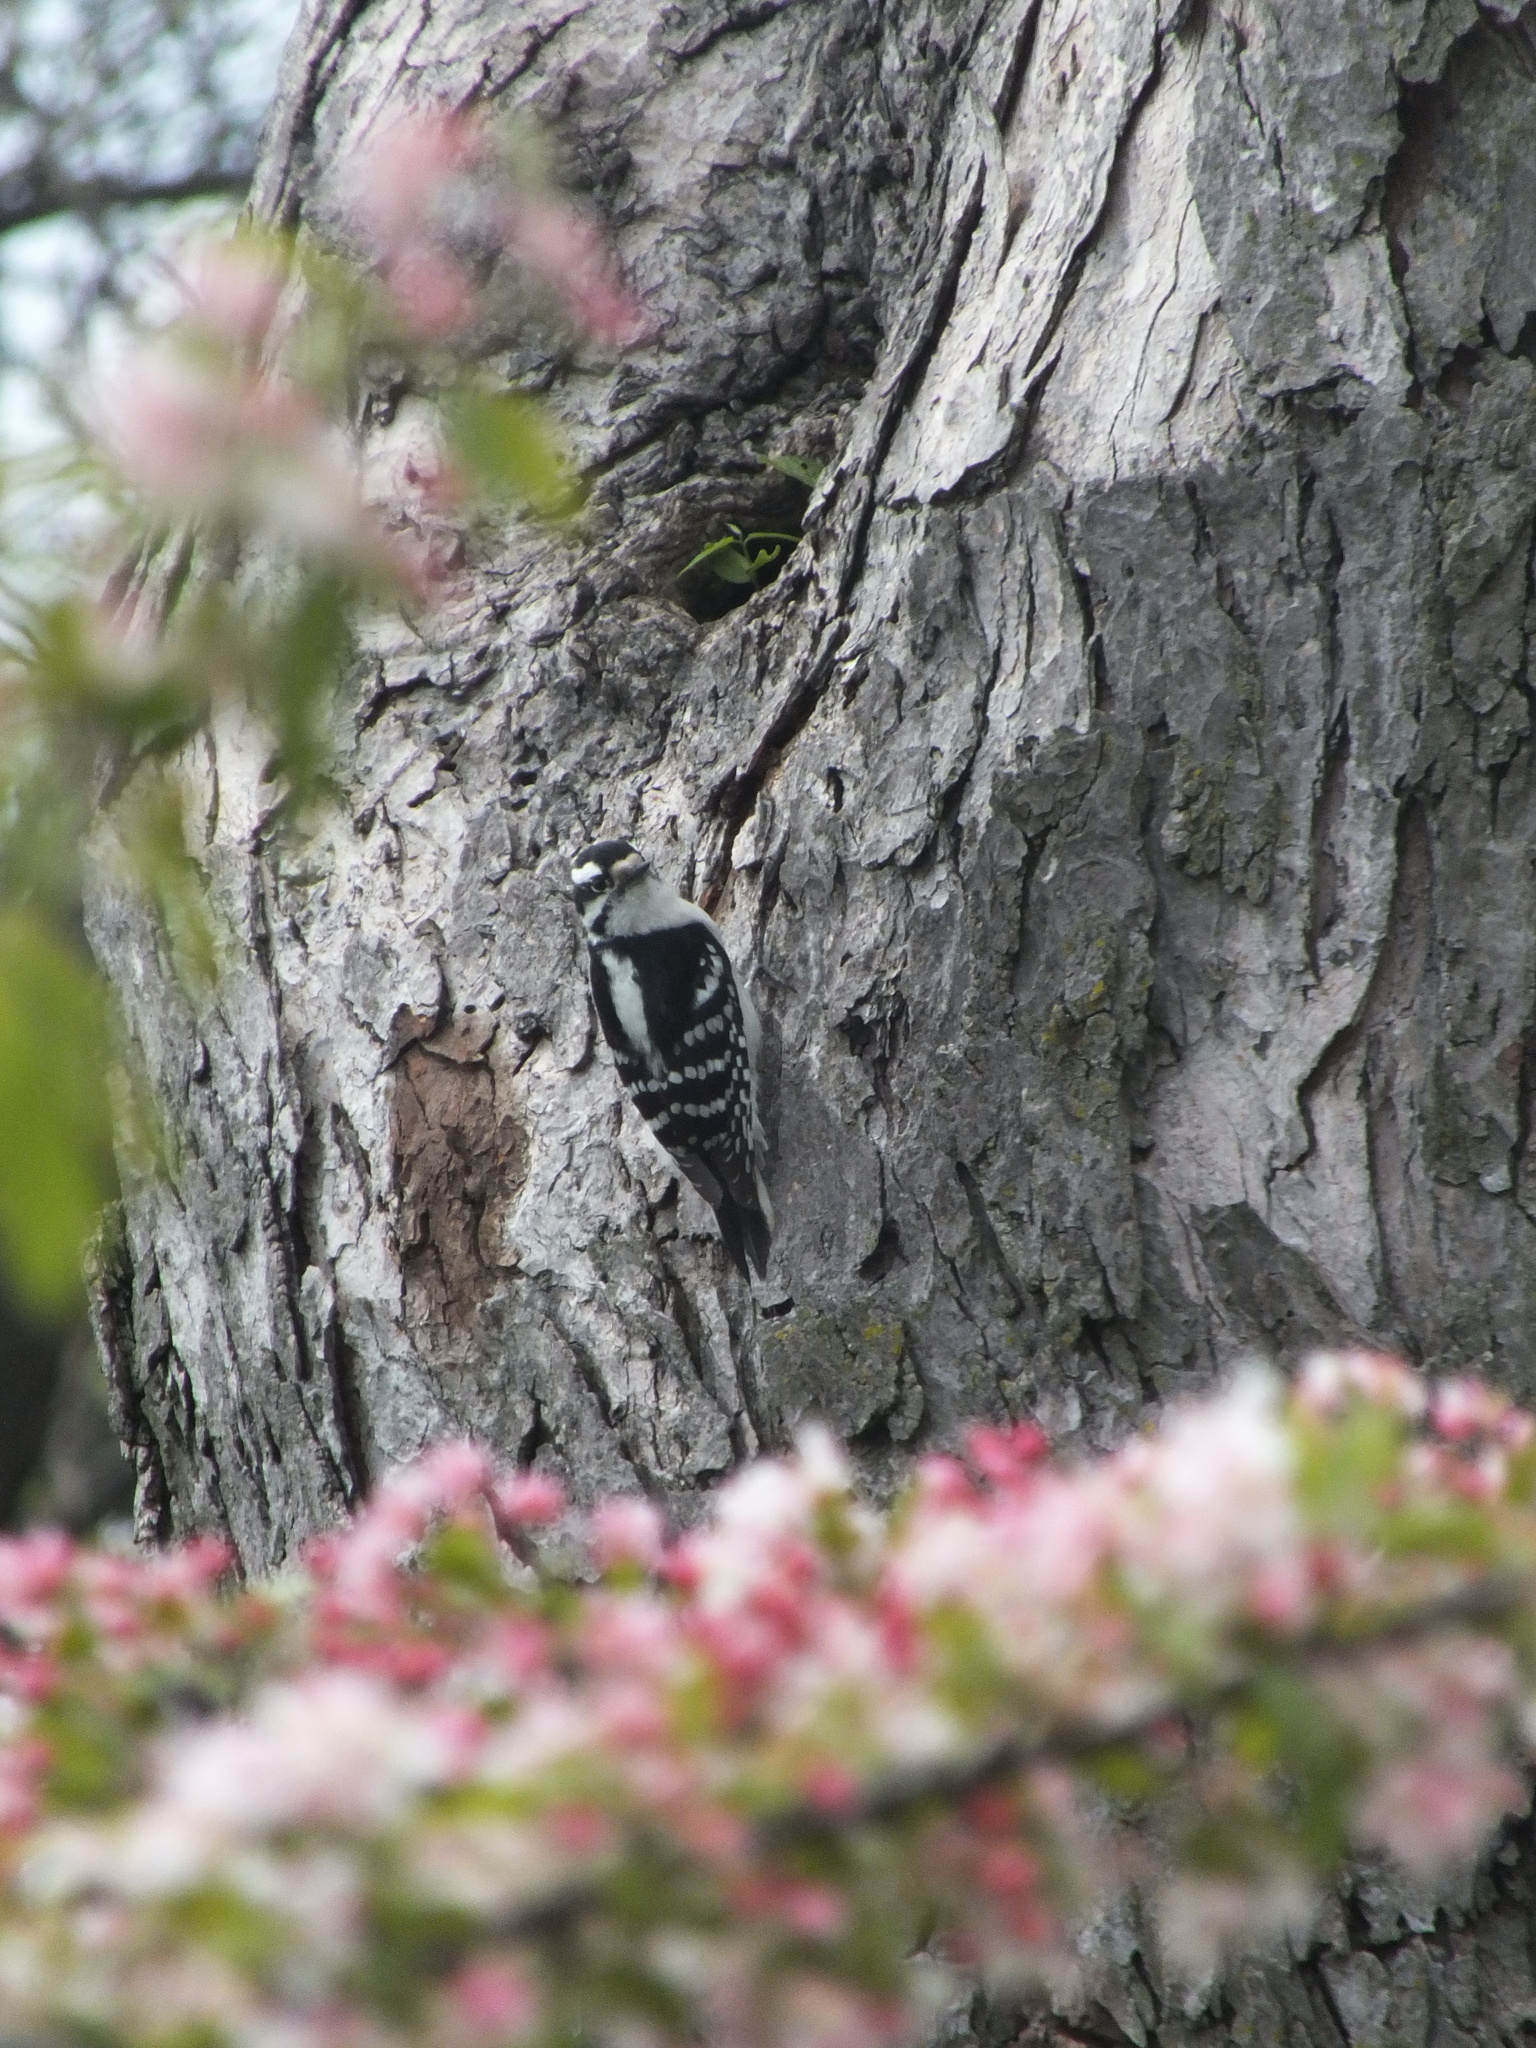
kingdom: Animalia
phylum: Chordata
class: Aves
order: Piciformes
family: Picidae
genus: Dryobates
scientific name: Dryobates pubescens
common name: Downy woodpecker
